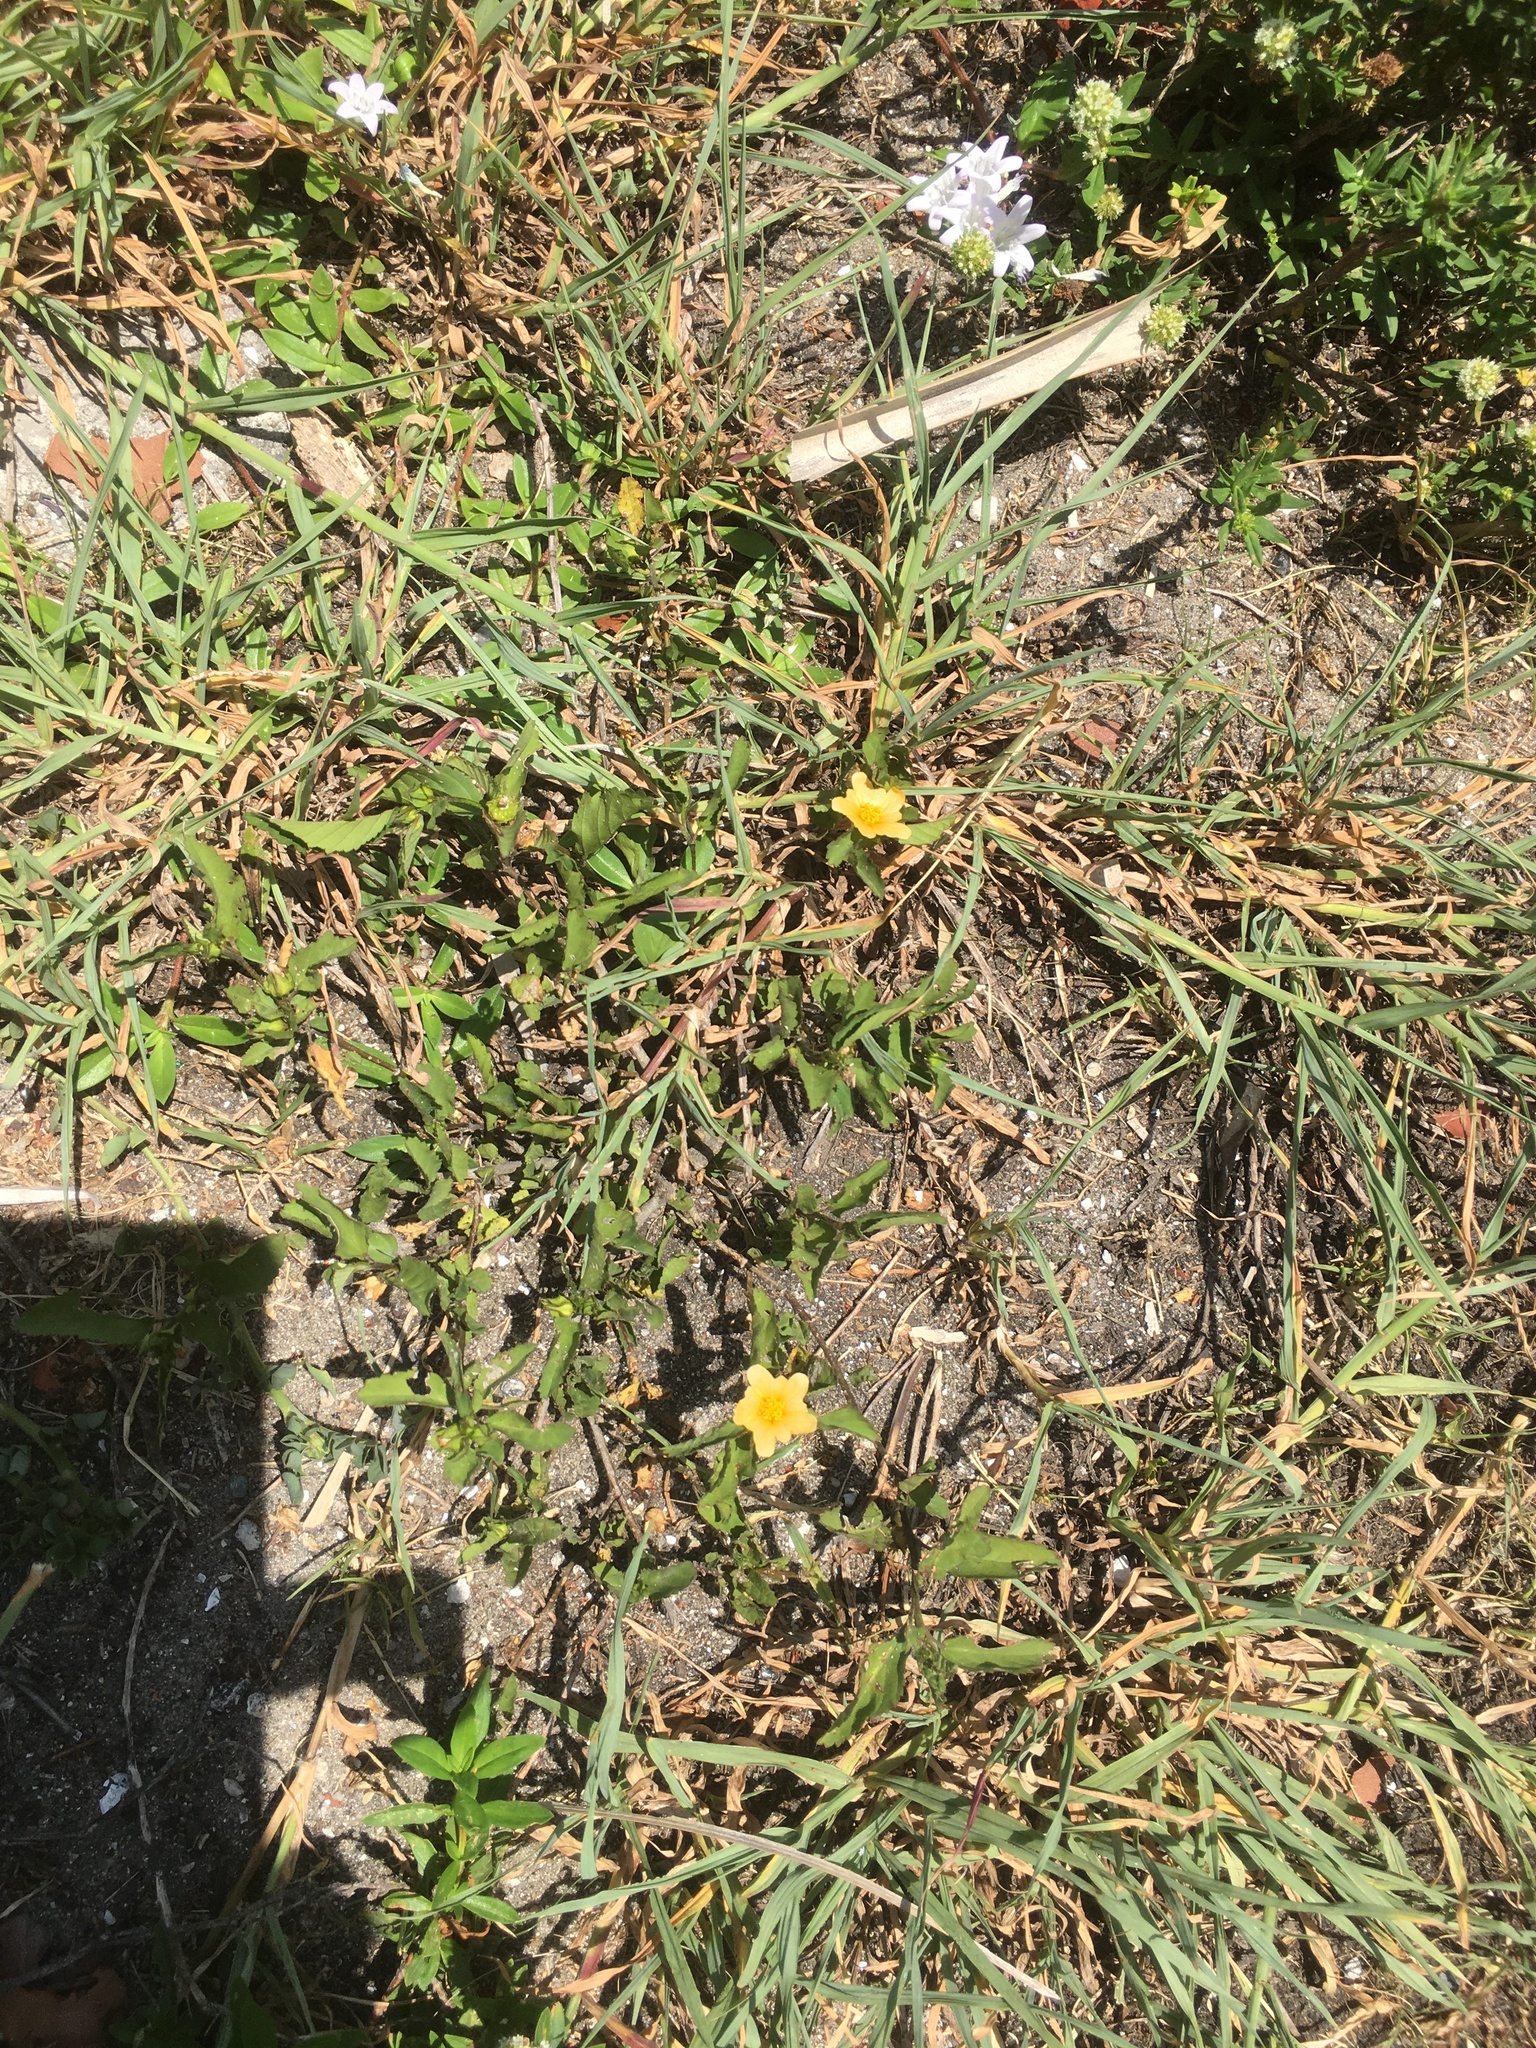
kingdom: Plantae
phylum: Tracheophyta
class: Magnoliopsida
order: Malvales
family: Malvaceae
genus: Sida
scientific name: Sida rhombifolia
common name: Queensland-hemp
